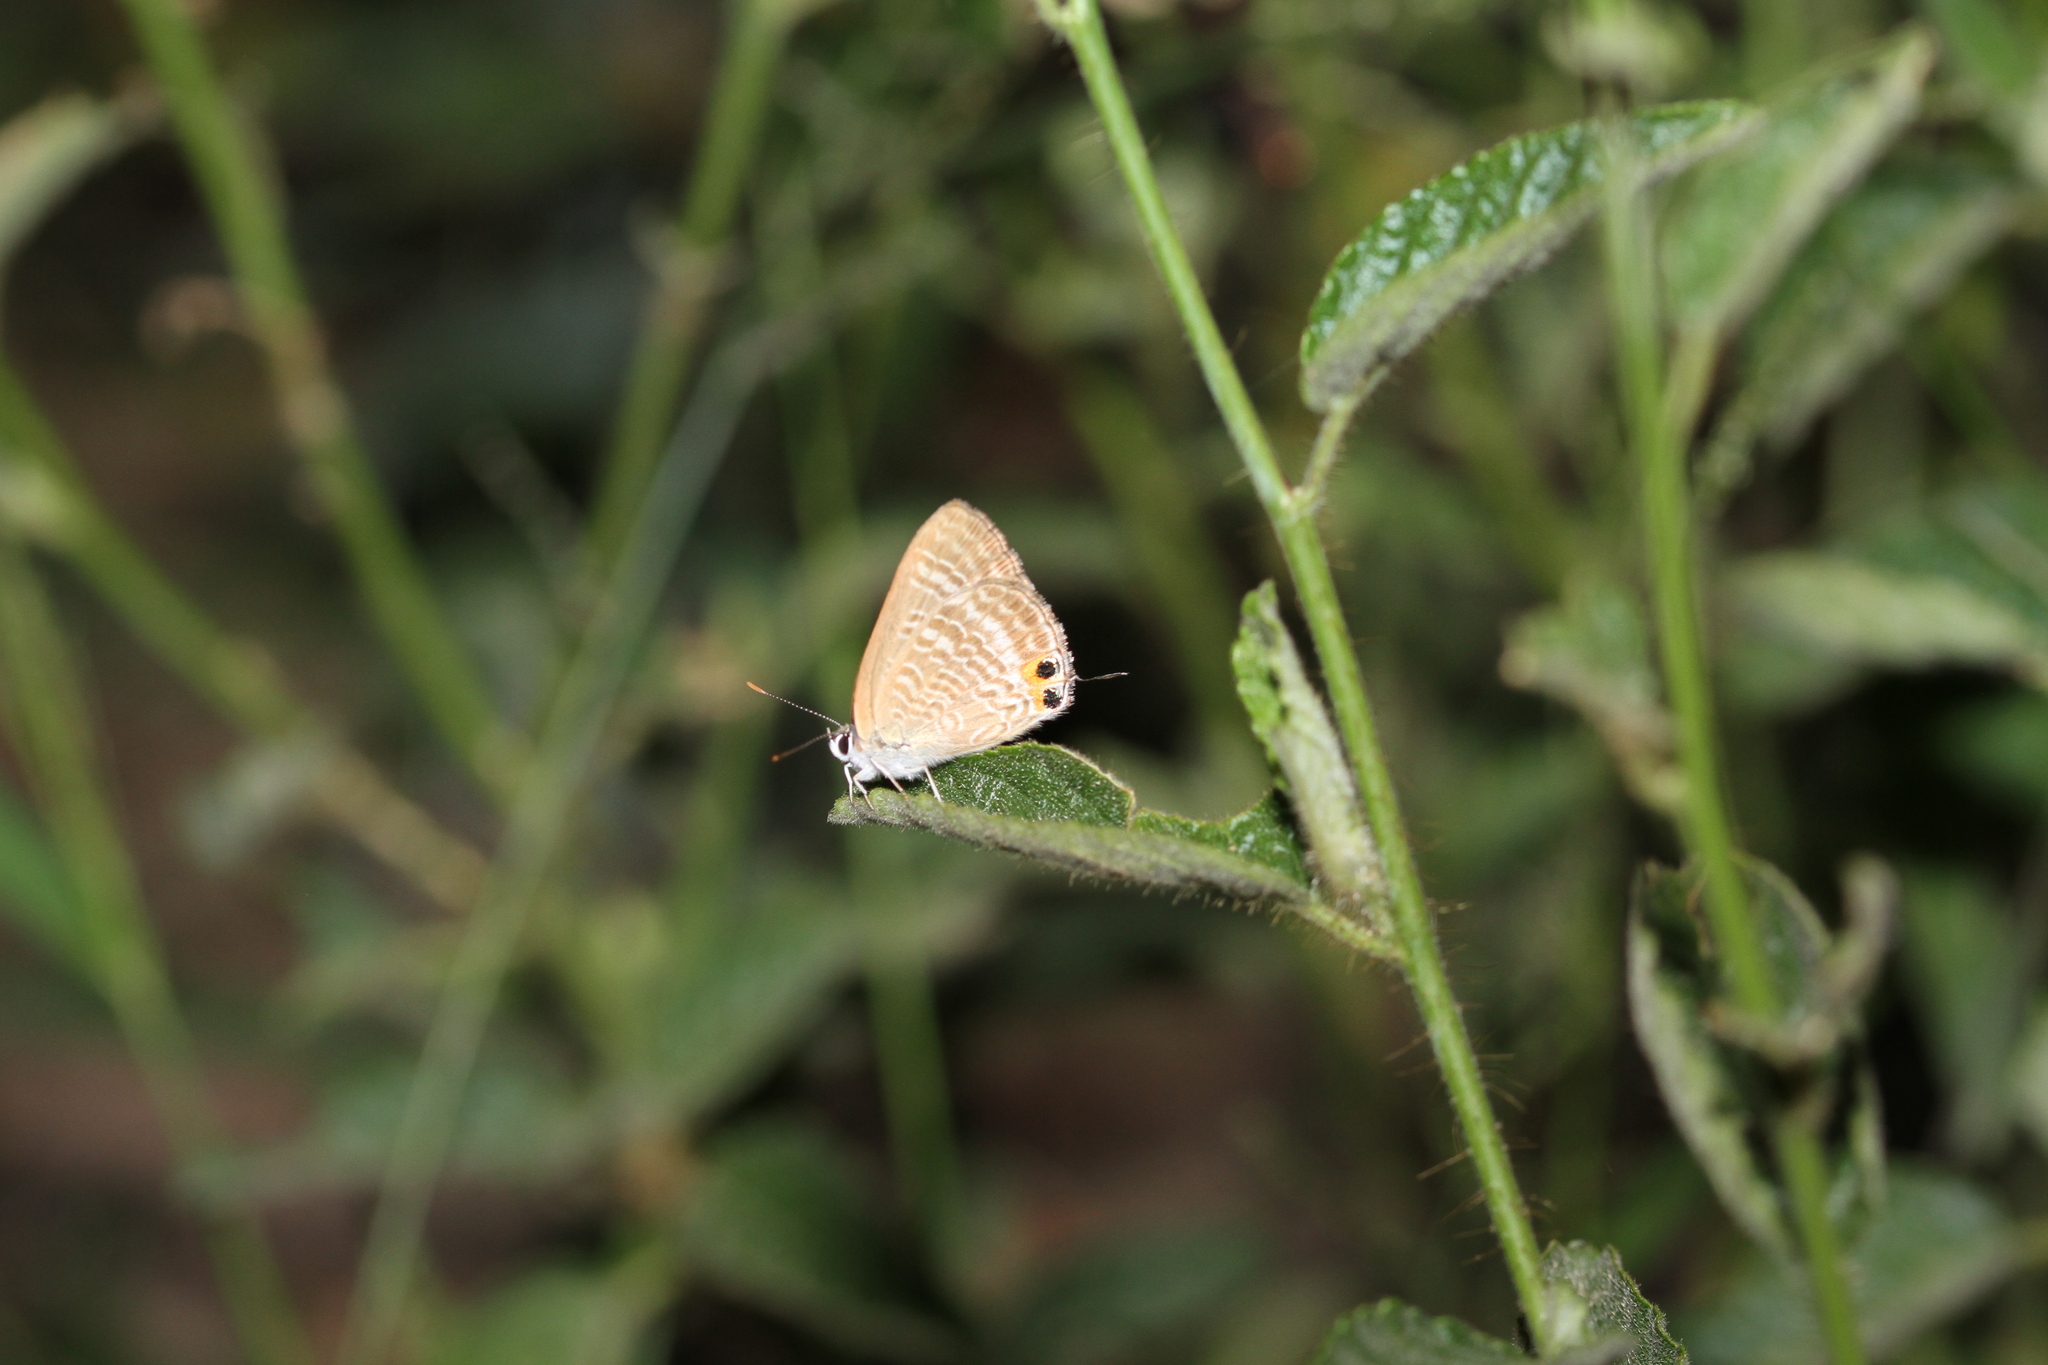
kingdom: Animalia
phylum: Arthropoda
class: Insecta
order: Lepidoptera
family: Lycaenidae
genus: Lampides
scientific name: Lampides boeticus
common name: Long-tailed blue
